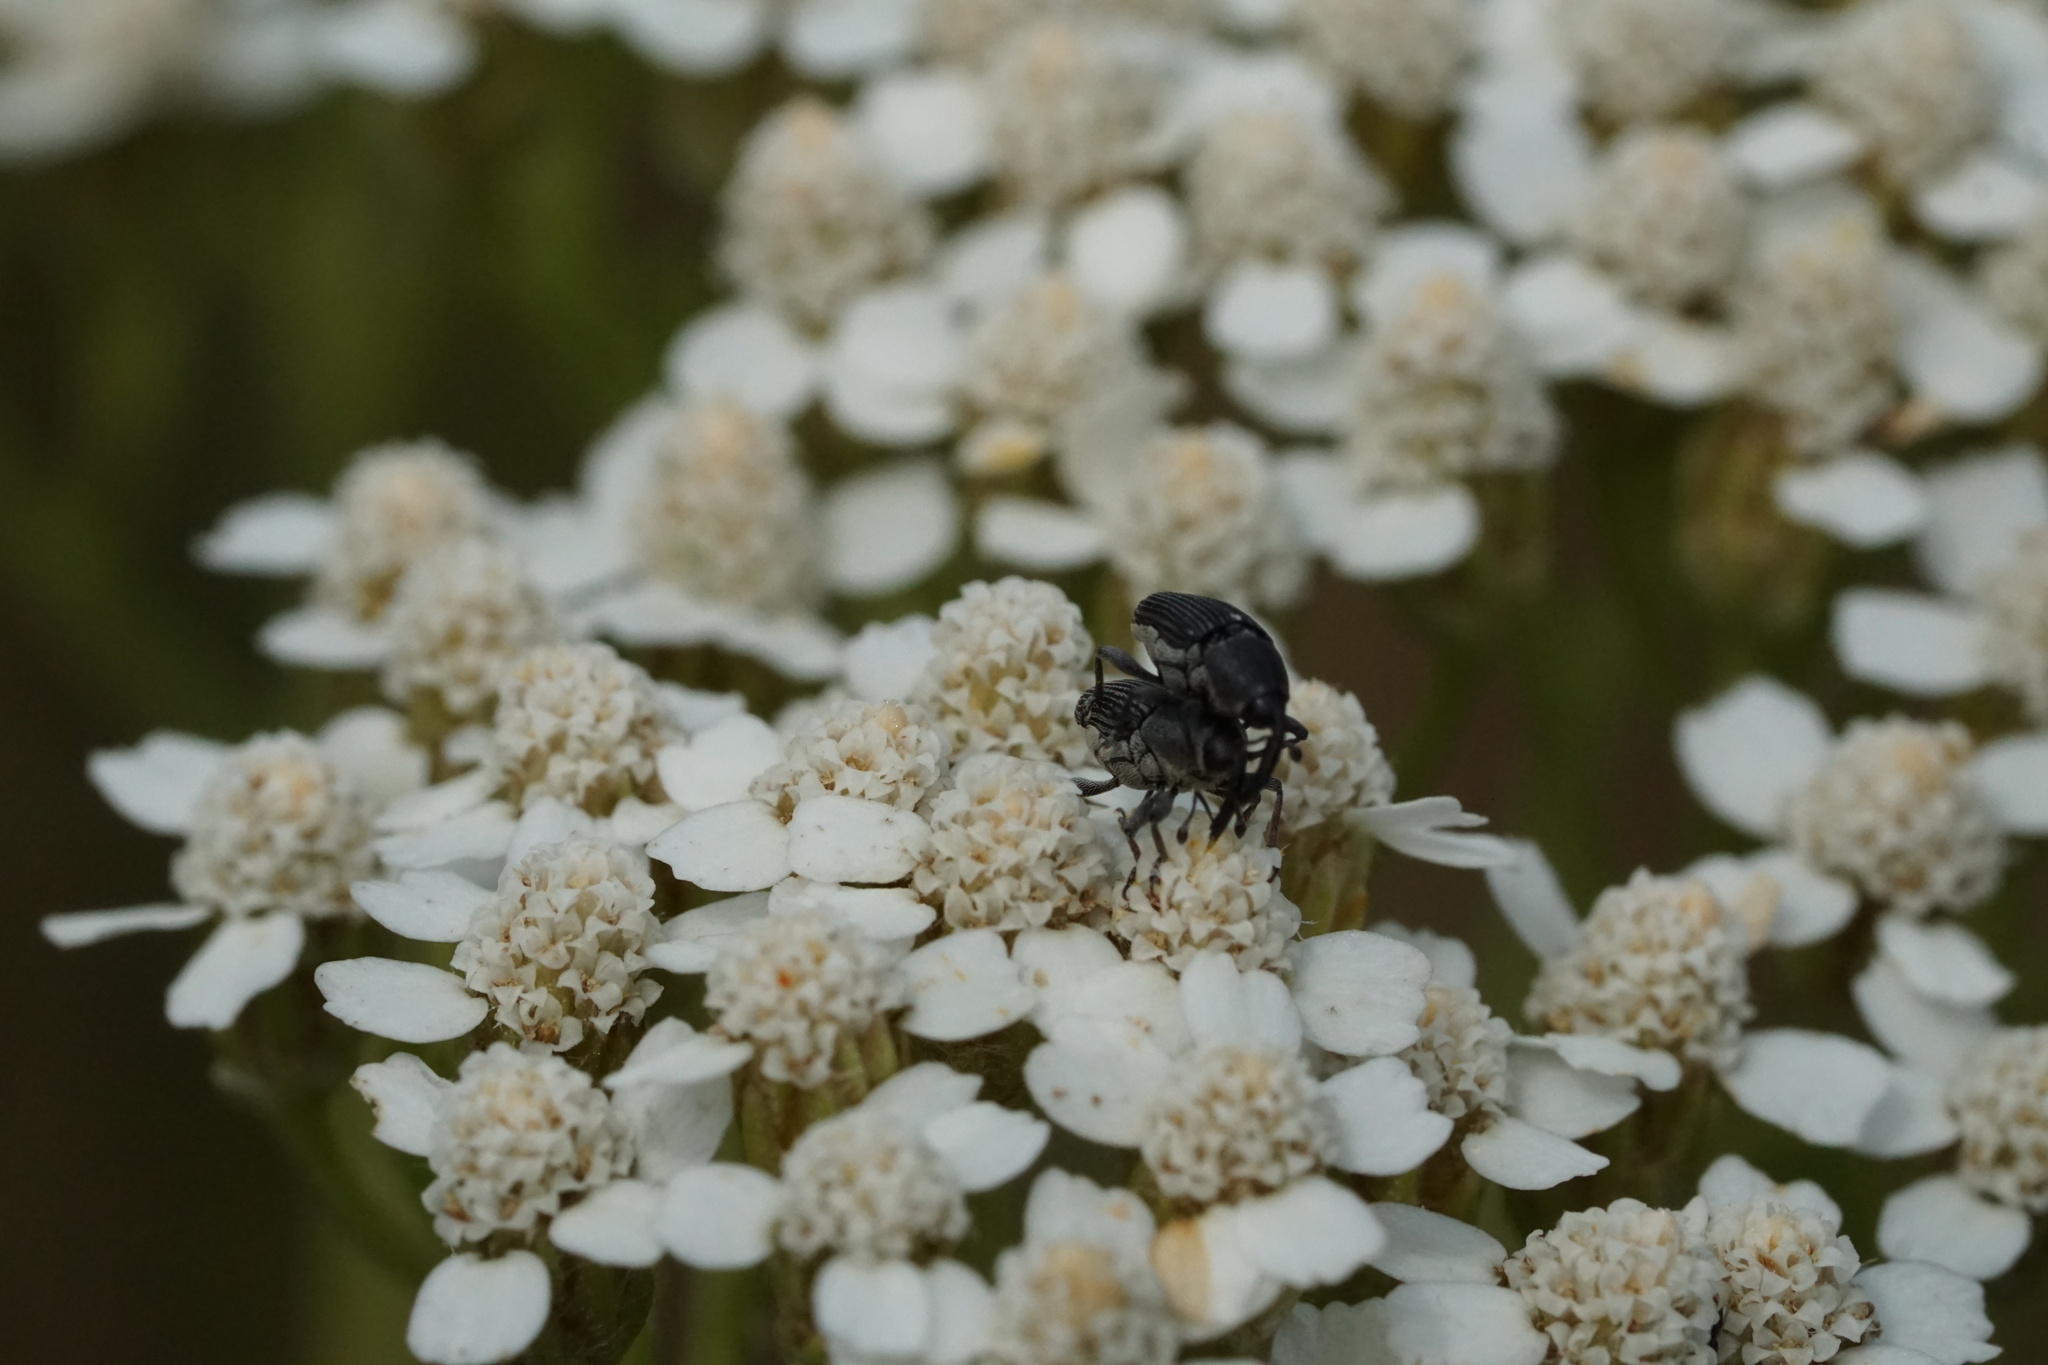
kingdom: Animalia
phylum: Arthropoda
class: Insecta
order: Coleoptera
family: Curculionidae
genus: Odontocorynus
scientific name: Odontocorynus umbellae
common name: Daisy flower weevil
